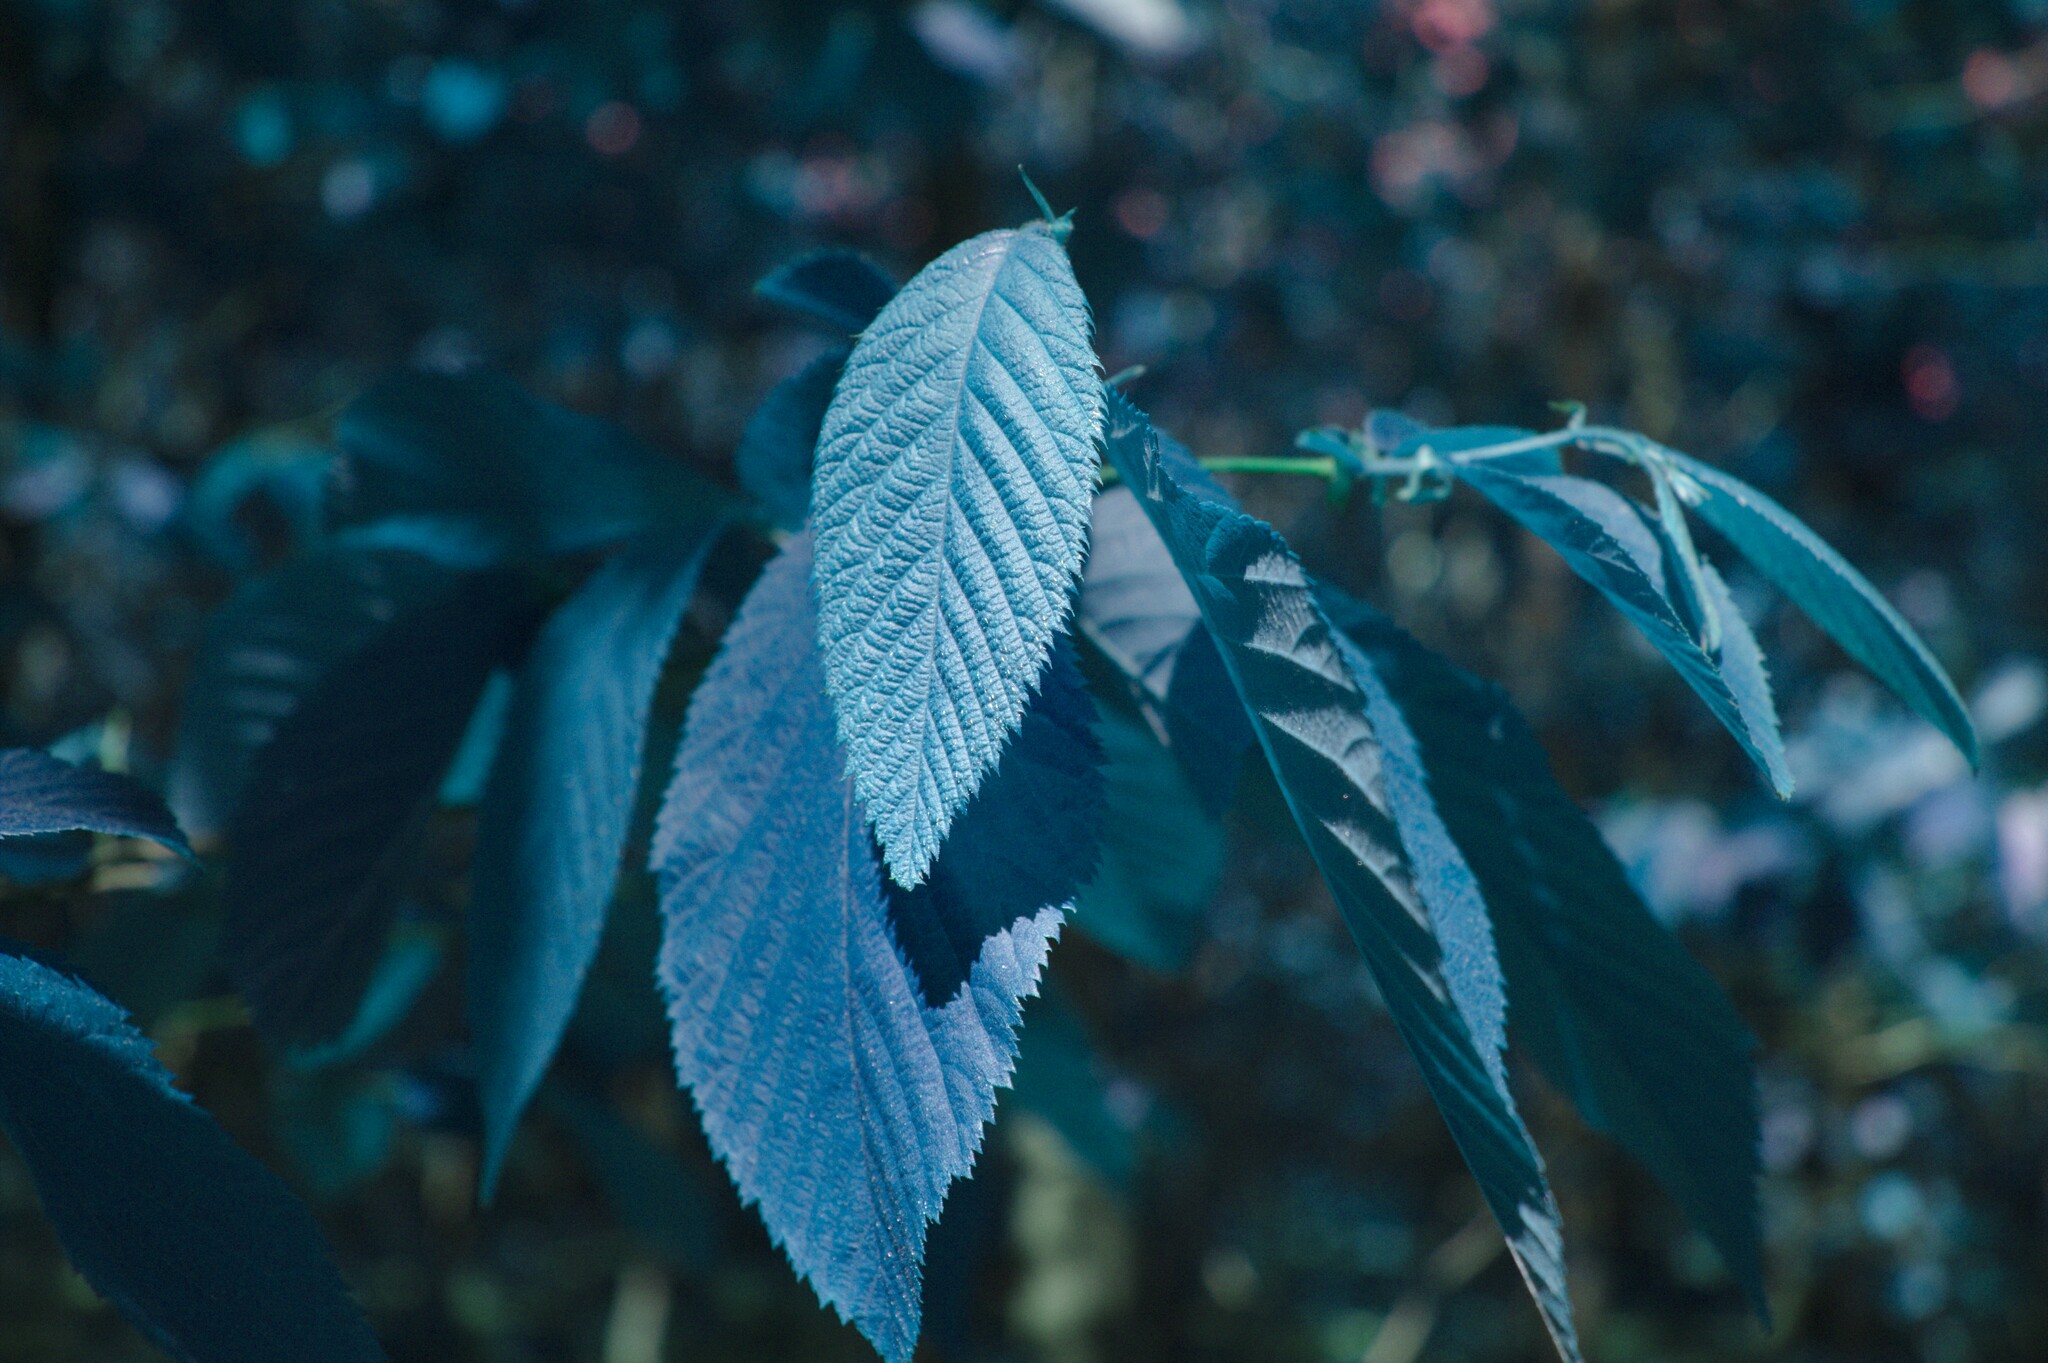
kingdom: Plantae
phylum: Tracheophyta
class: Magnoliopsida
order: Fagales
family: Betulaceae
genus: Ostrya
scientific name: Ostrya virginiana
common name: Ironwood
